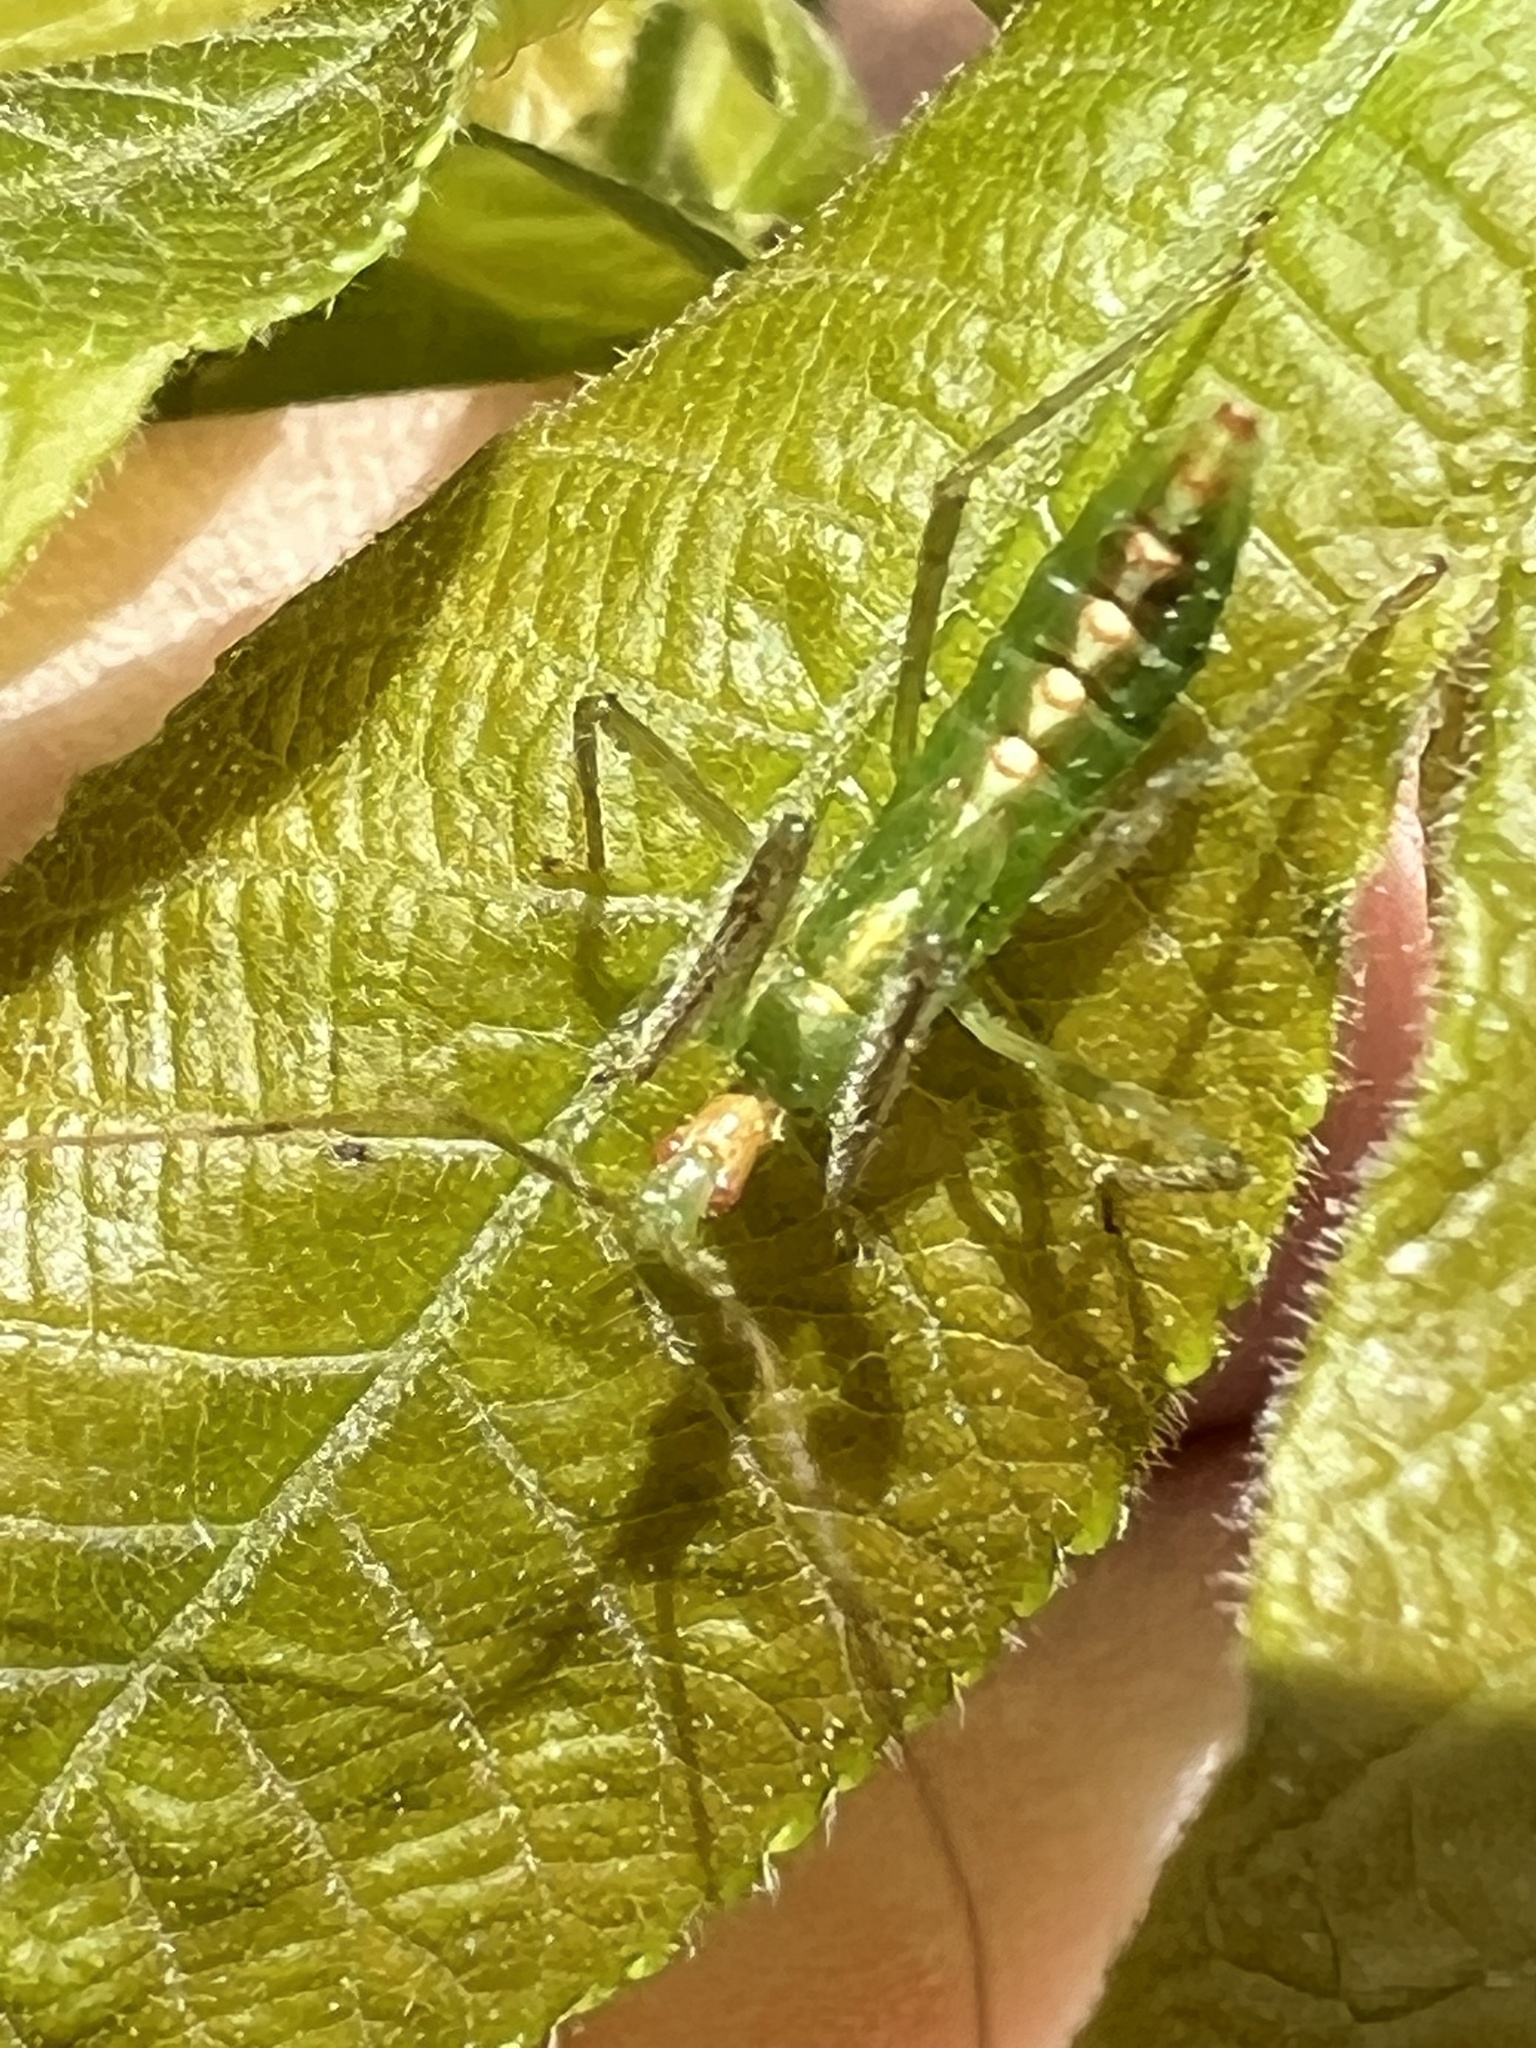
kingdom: Animalia
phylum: Arthropoda
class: Insecta
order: Hemiptera
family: Reduviidae
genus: Zelus
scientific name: Zelus luridus
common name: Pale green assassin bug
